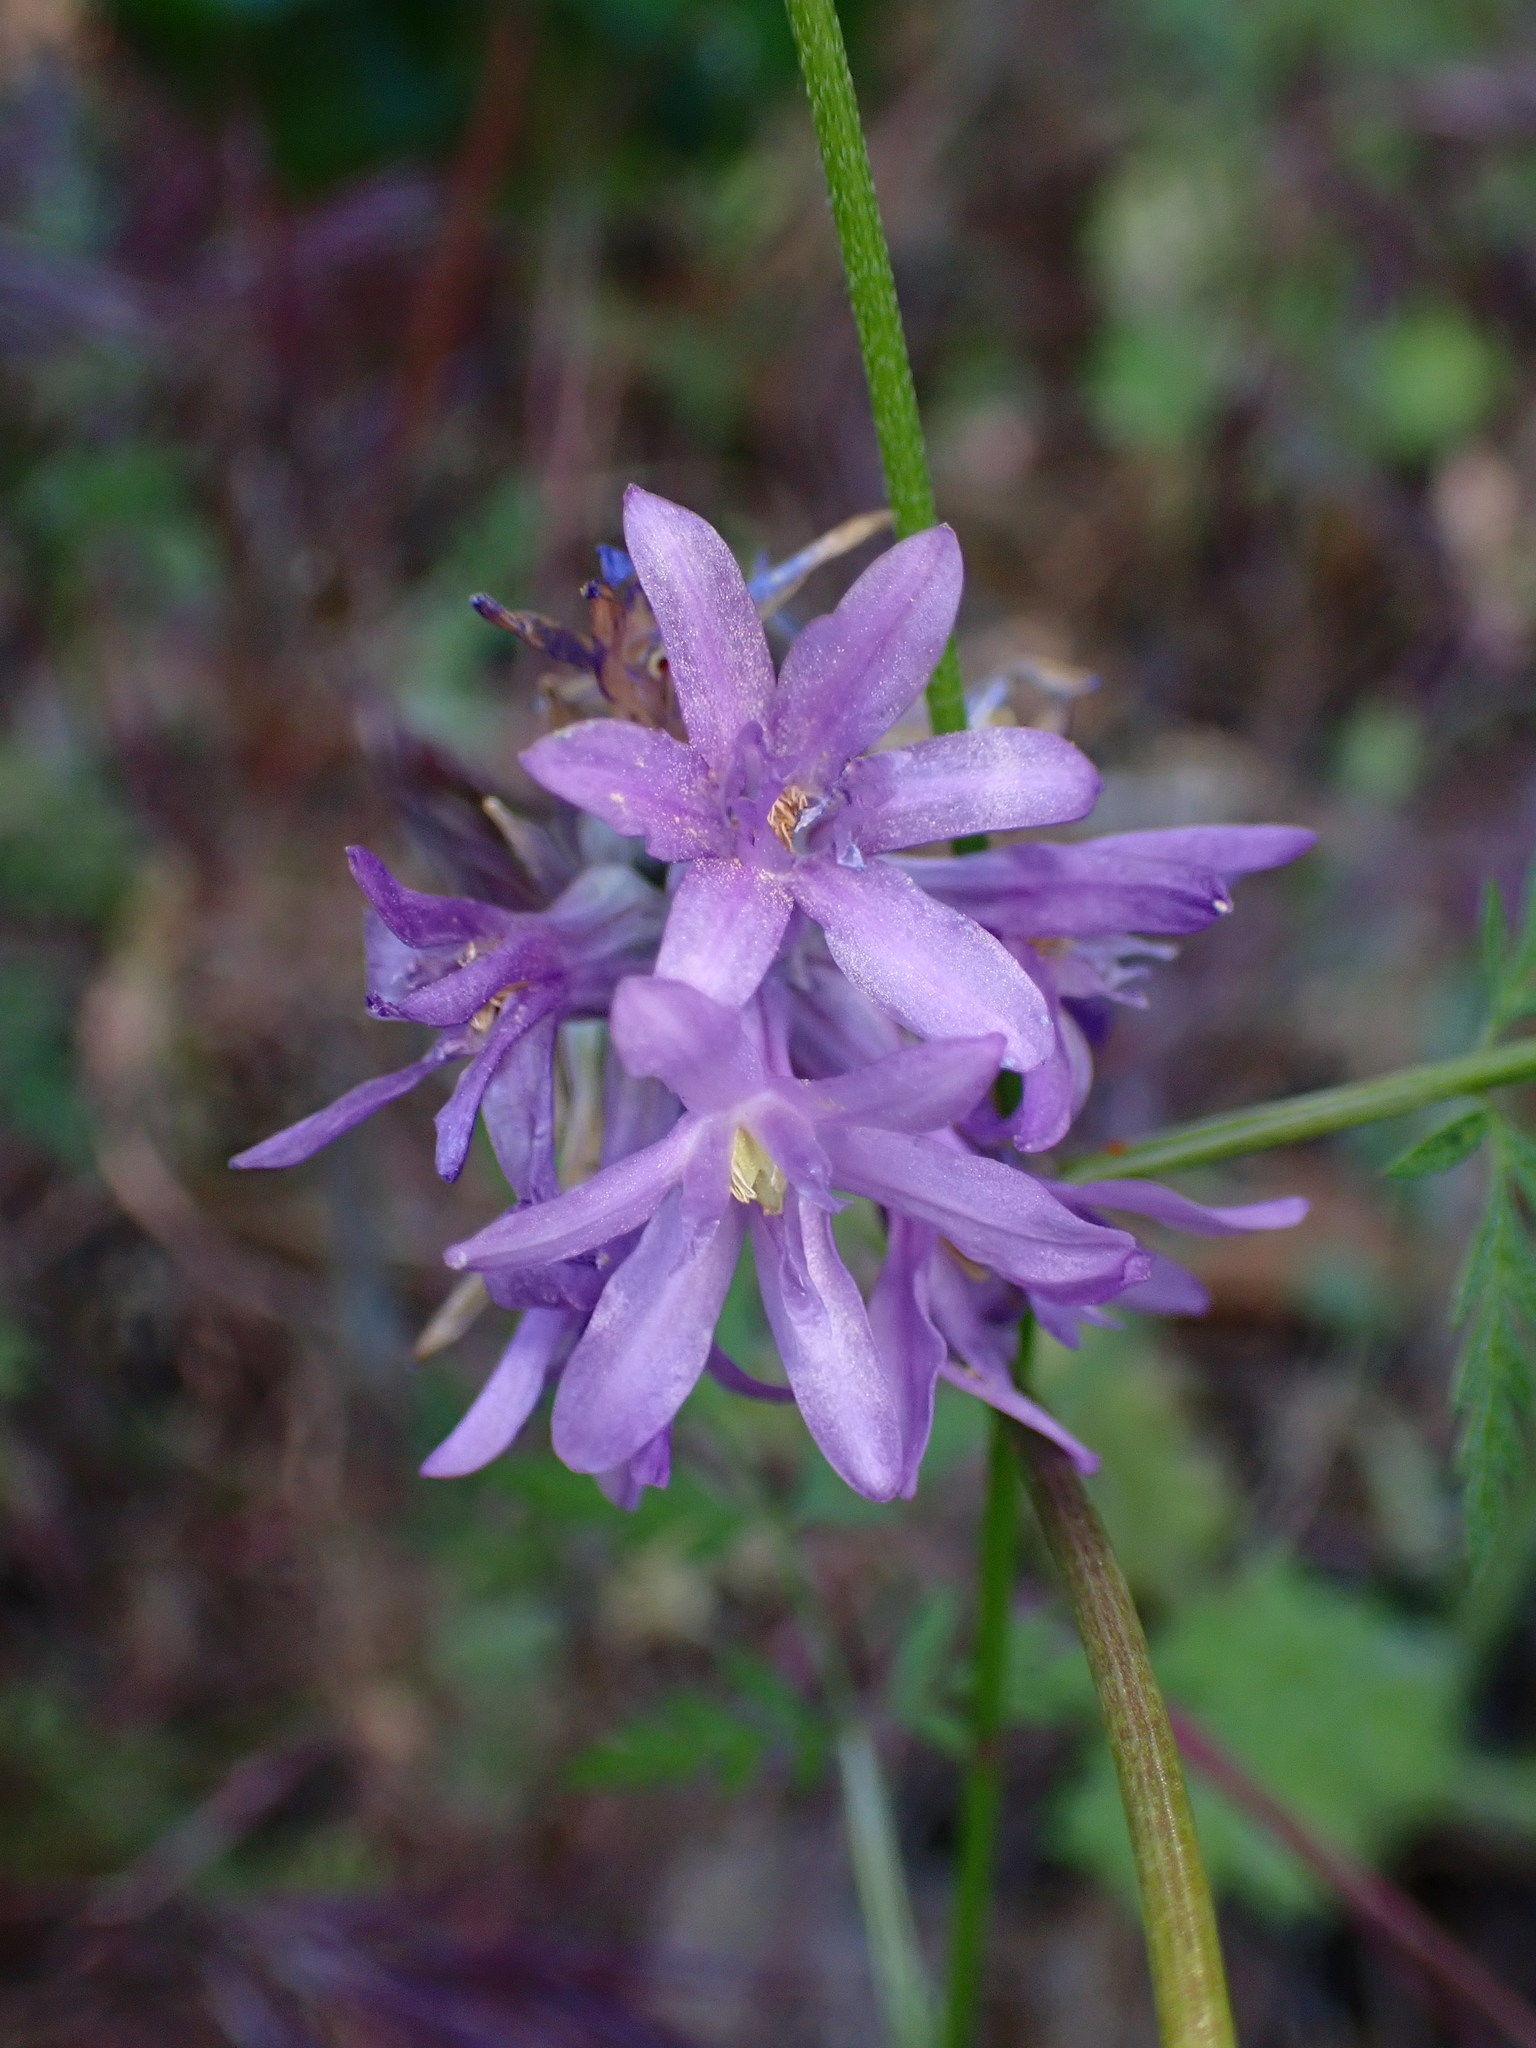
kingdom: Plantae
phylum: Tracheophyta
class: Liliopsida
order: Asparagales
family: Asparagaceae
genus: Dichelostemma
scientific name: Dichelostemma congestum
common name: Fork-tooth ookow
